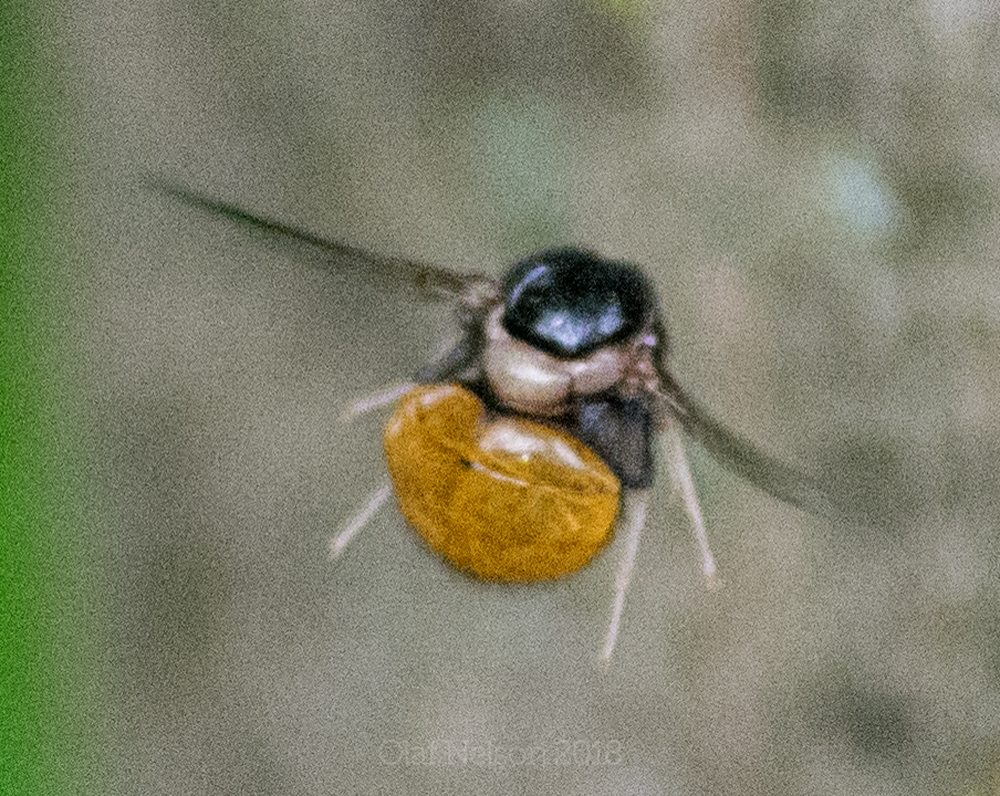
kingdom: Animalia
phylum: Arthropoda
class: Insecta
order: Diptera
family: Acroceridae
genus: Pterodontia
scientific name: Pterodontia flavipes
